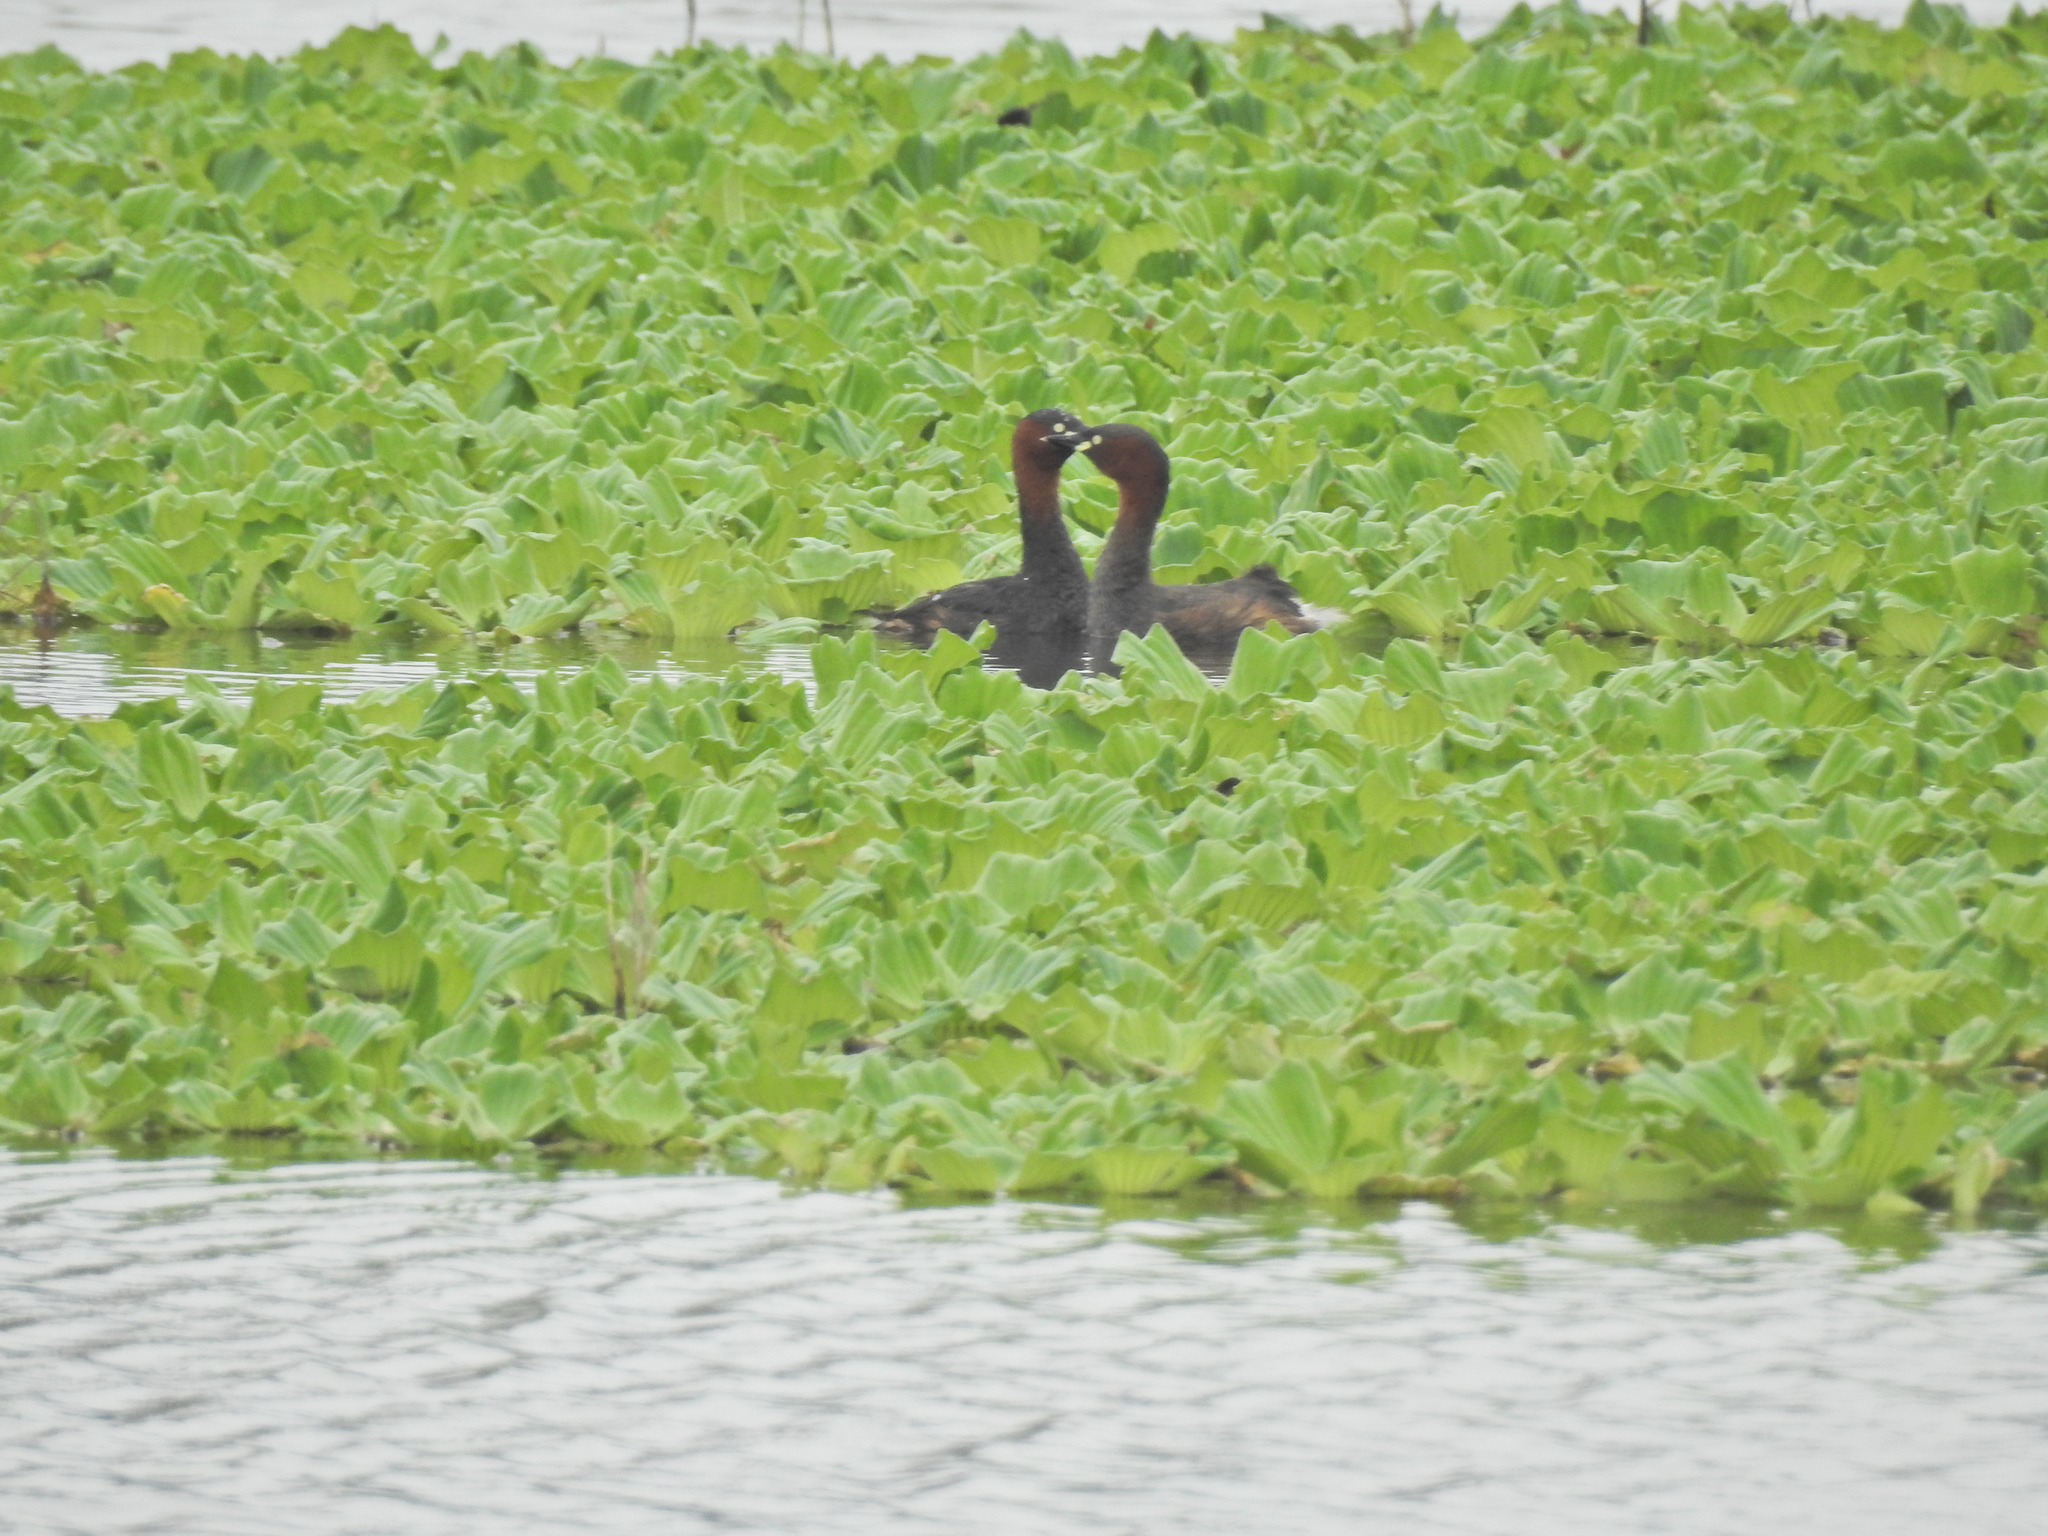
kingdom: Animalia
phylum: Chordata
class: Aves
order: Podicipediformes
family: Podicipedidae
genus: Tachybaptus
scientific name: Tachybaptus ruficollis
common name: Little grebe
